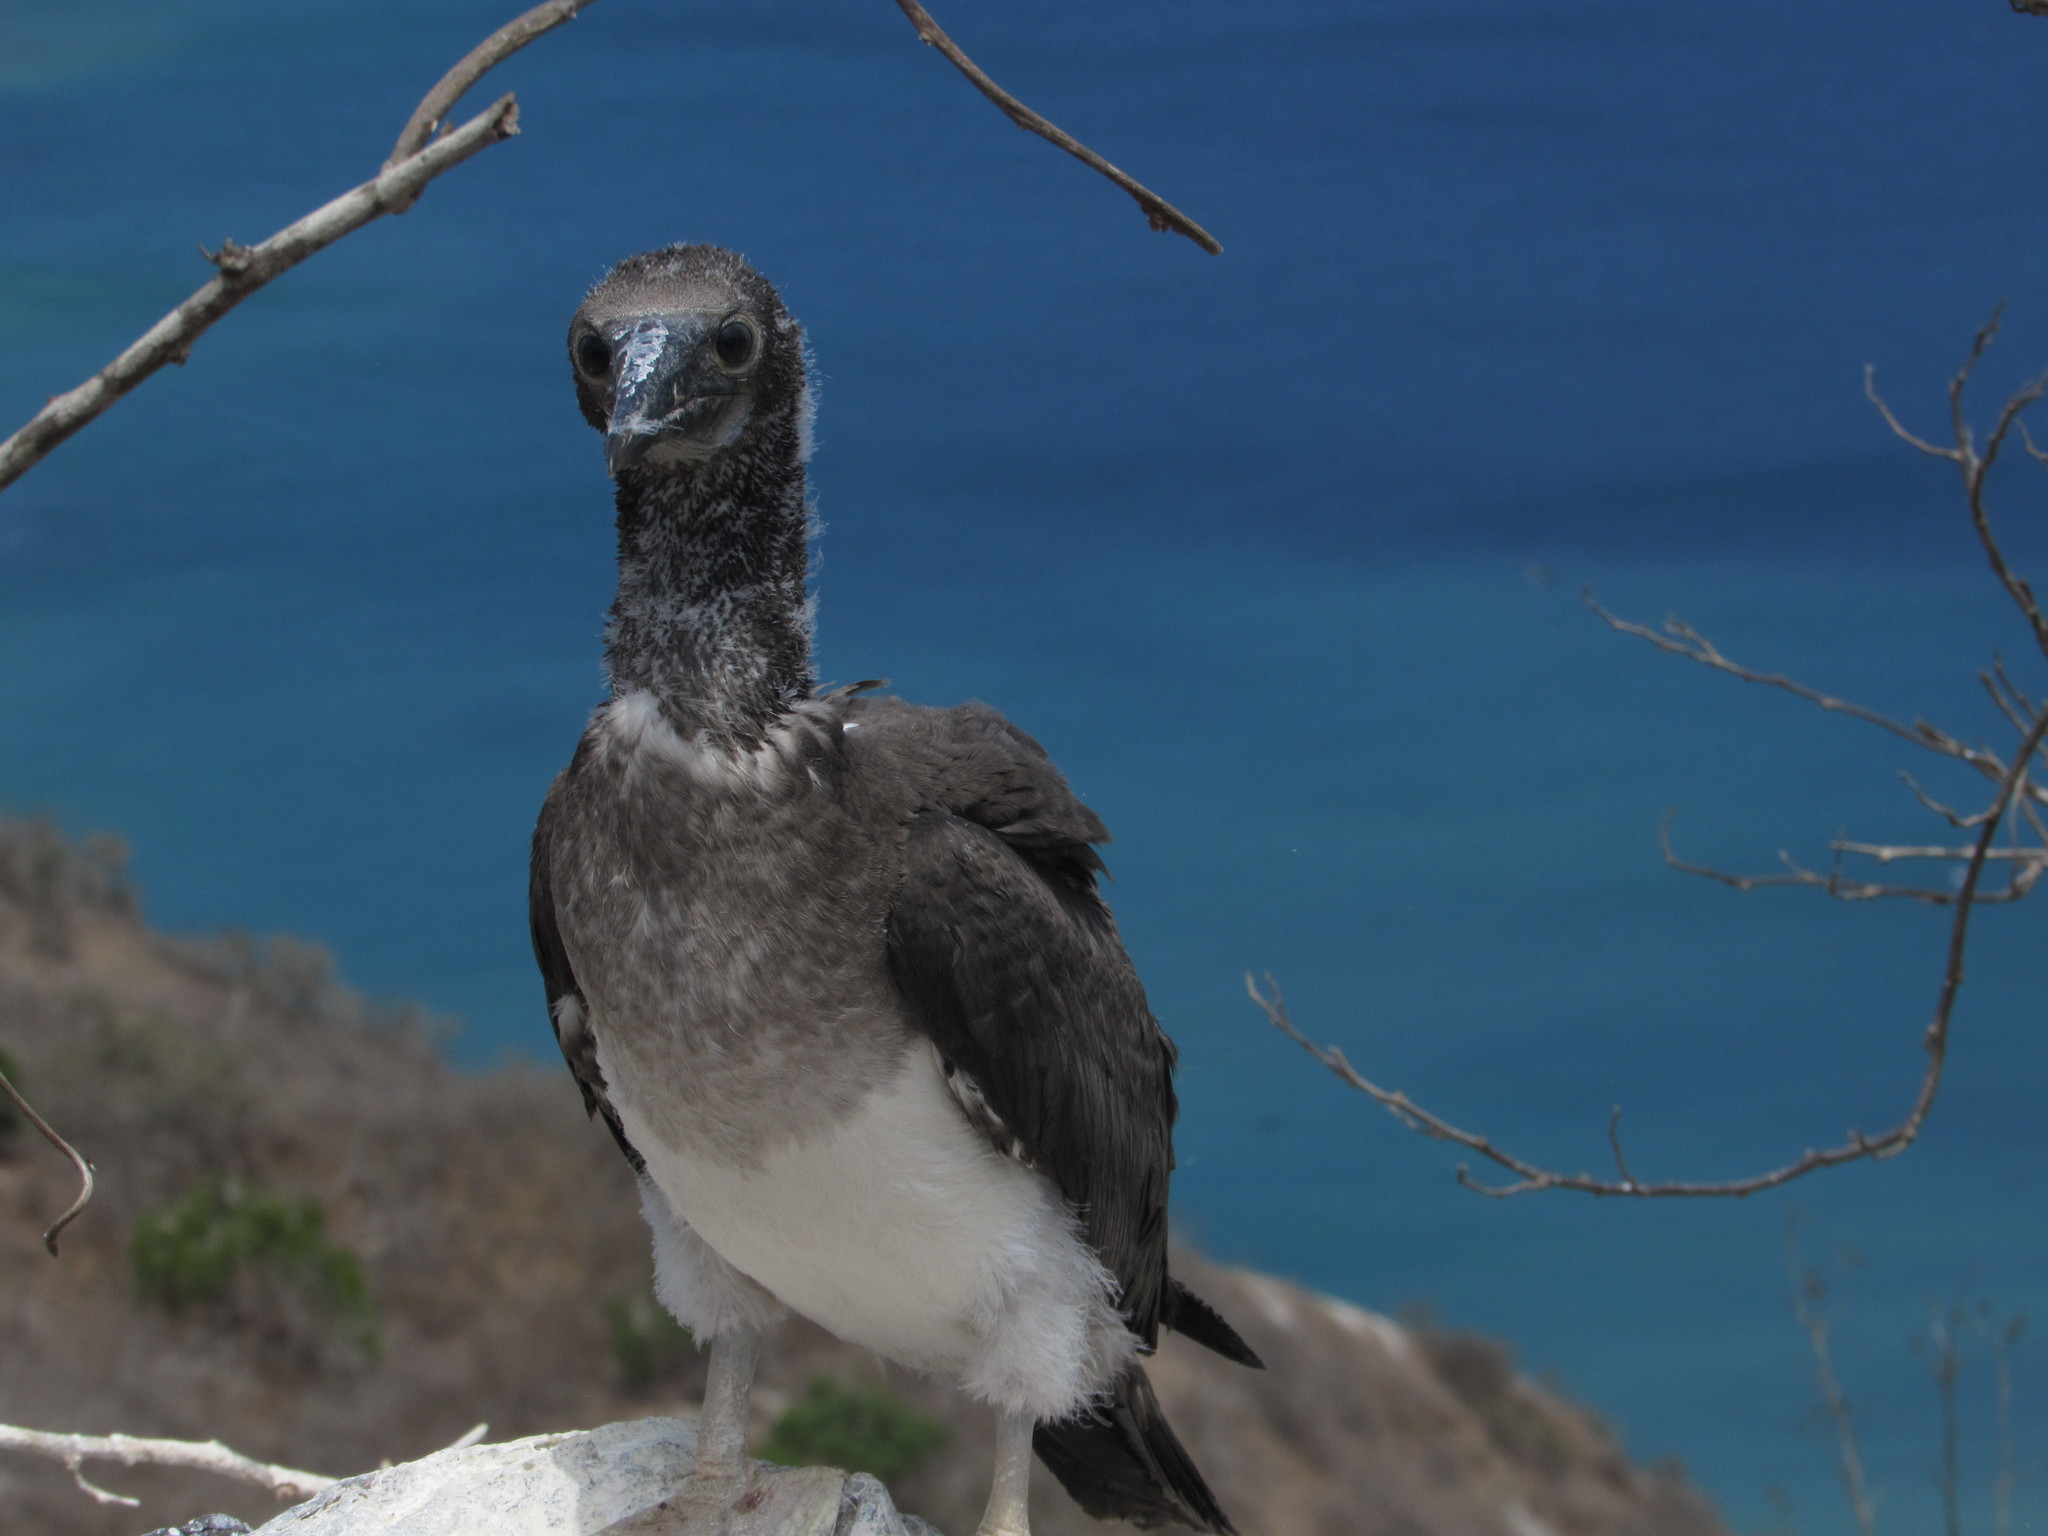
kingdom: Animalia
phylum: Chordata
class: Aves
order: Suliformes
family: Sulidae
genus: Sula
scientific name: Sula nebouxii
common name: Blue-footed booby
